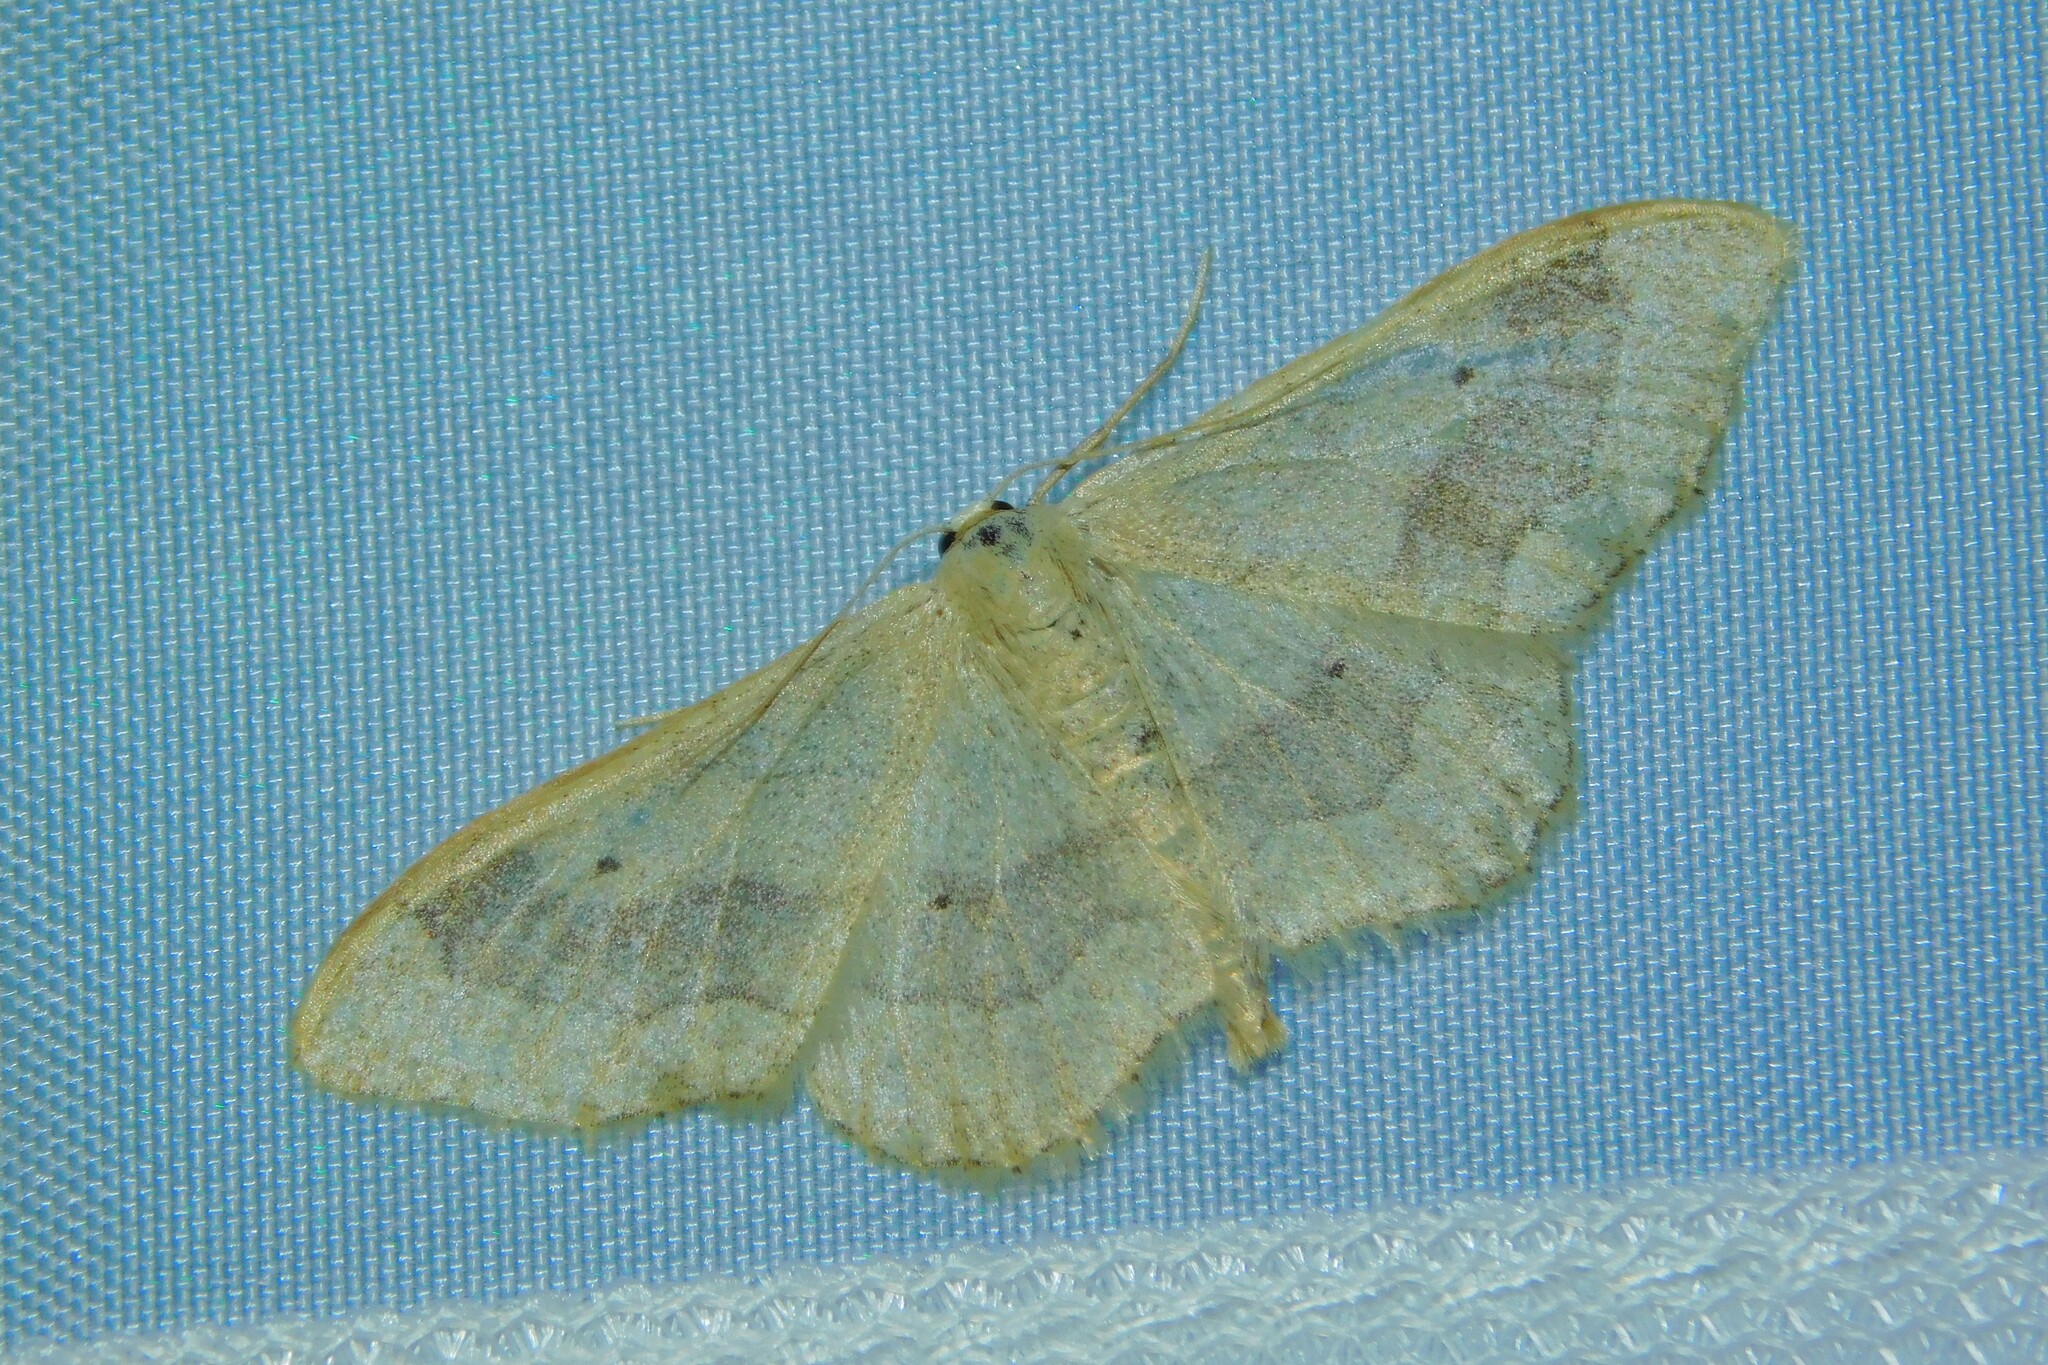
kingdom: Animalia
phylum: Arthropoda
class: Insecta
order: Lepidoptera
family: Geometridae
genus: Idaea
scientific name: Idaea aversata
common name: Riband wave
